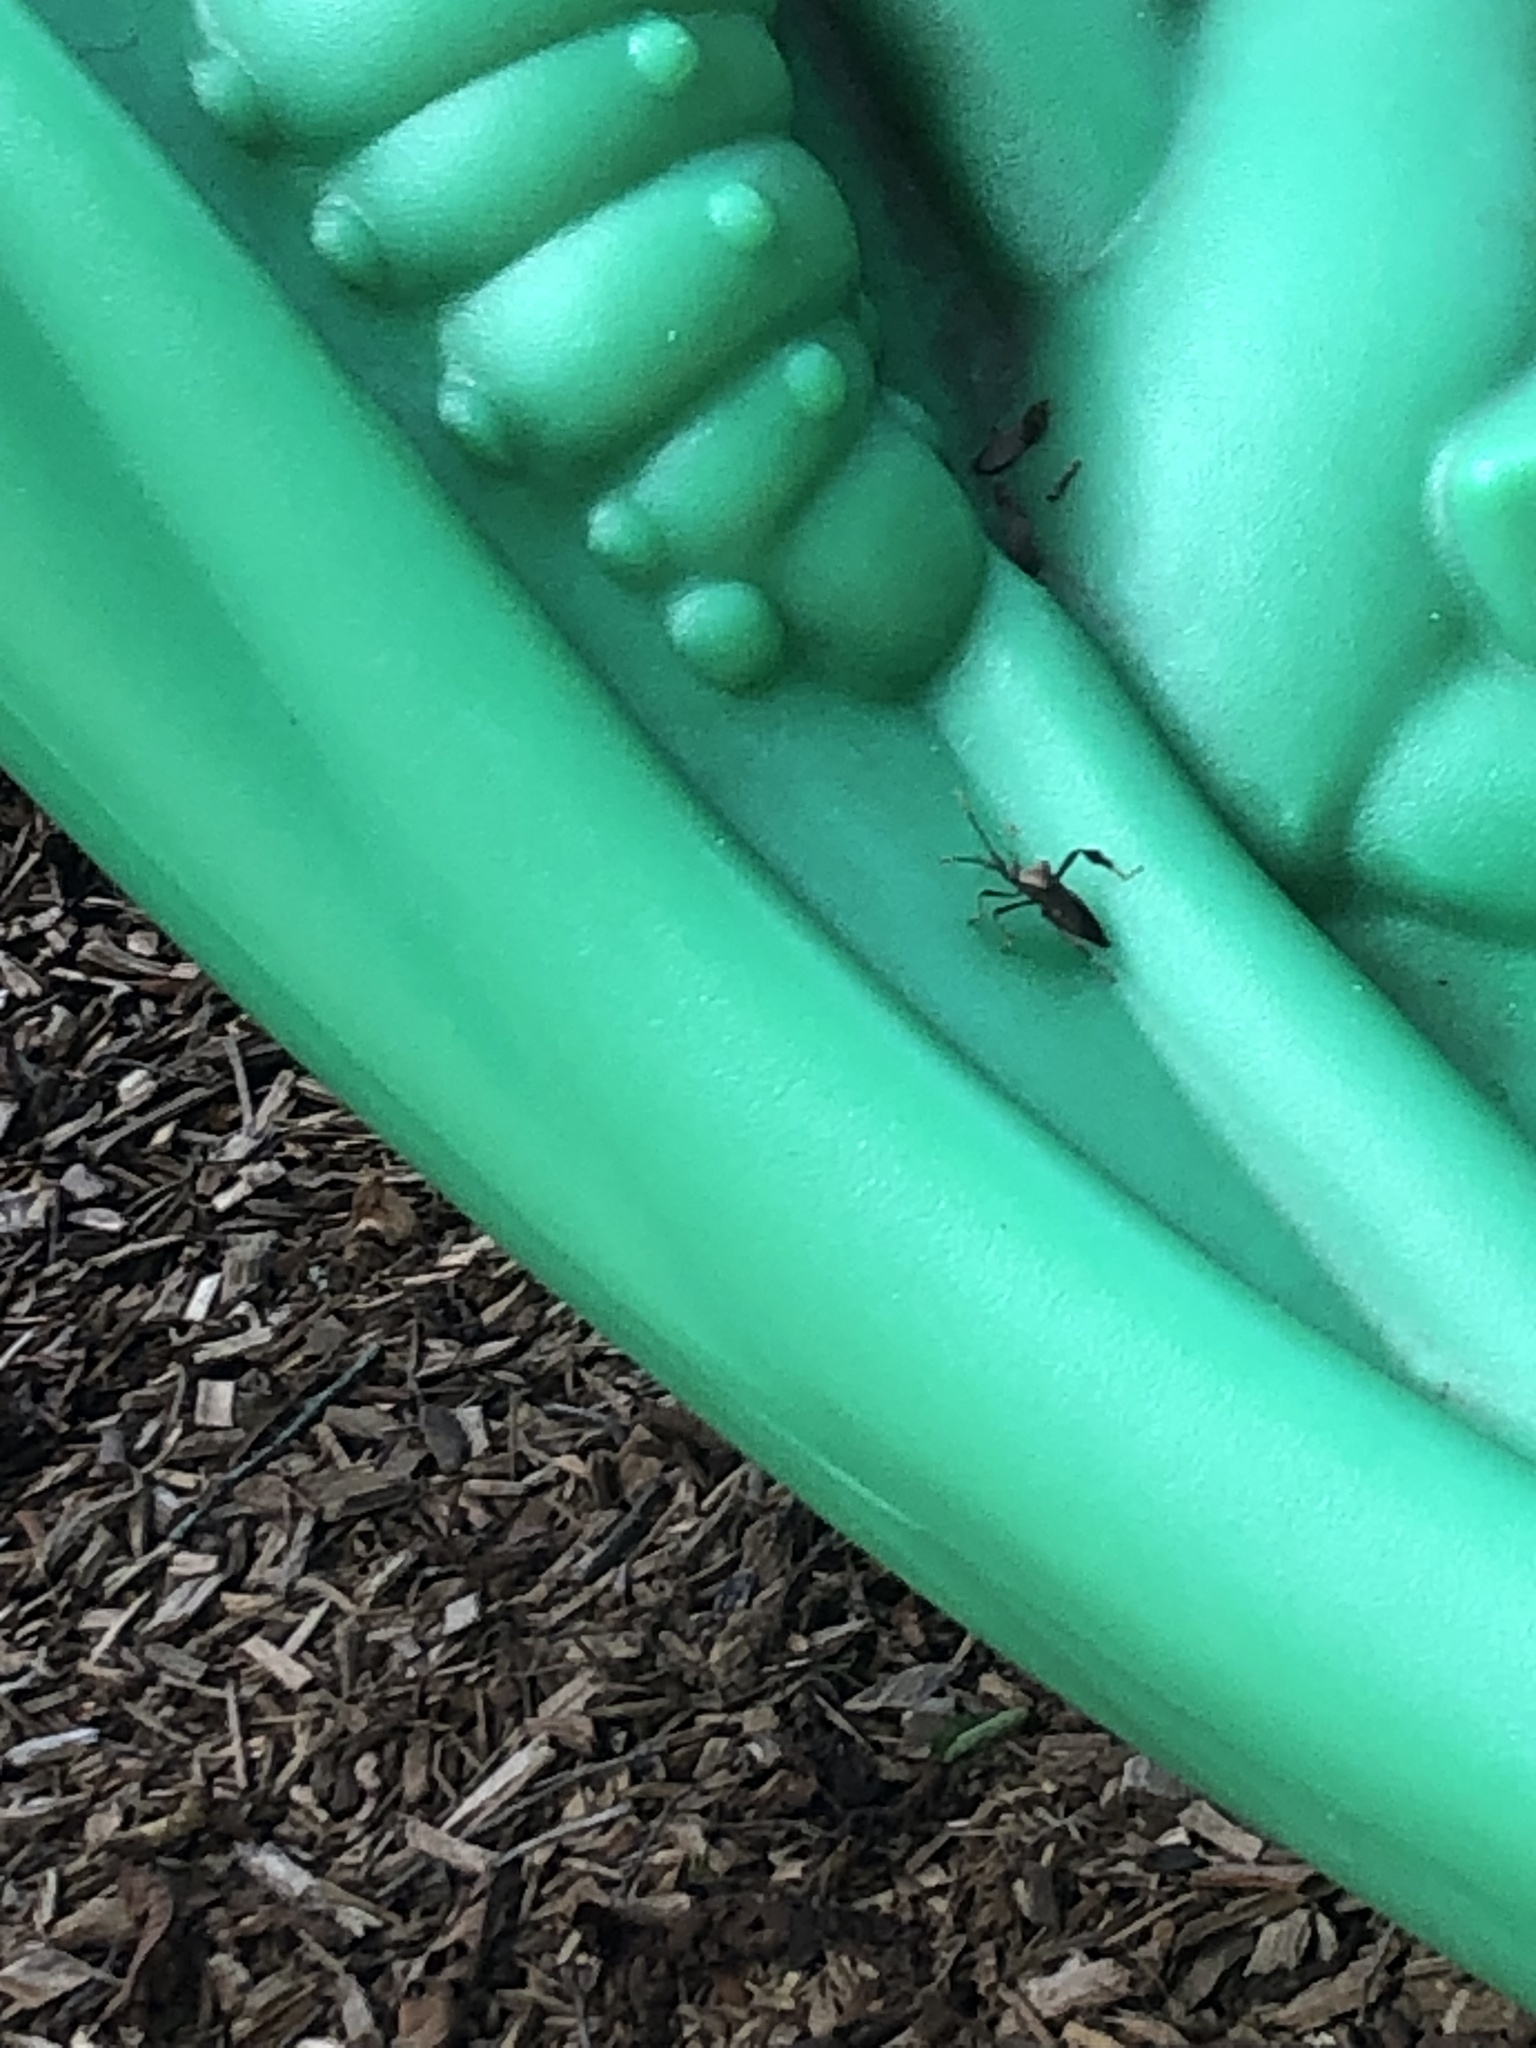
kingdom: Animalia
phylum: Arthropoda
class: Insecta
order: Hemiptera
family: Coreidae
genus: Acanthocephala
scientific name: Acanthocephala terminalis
